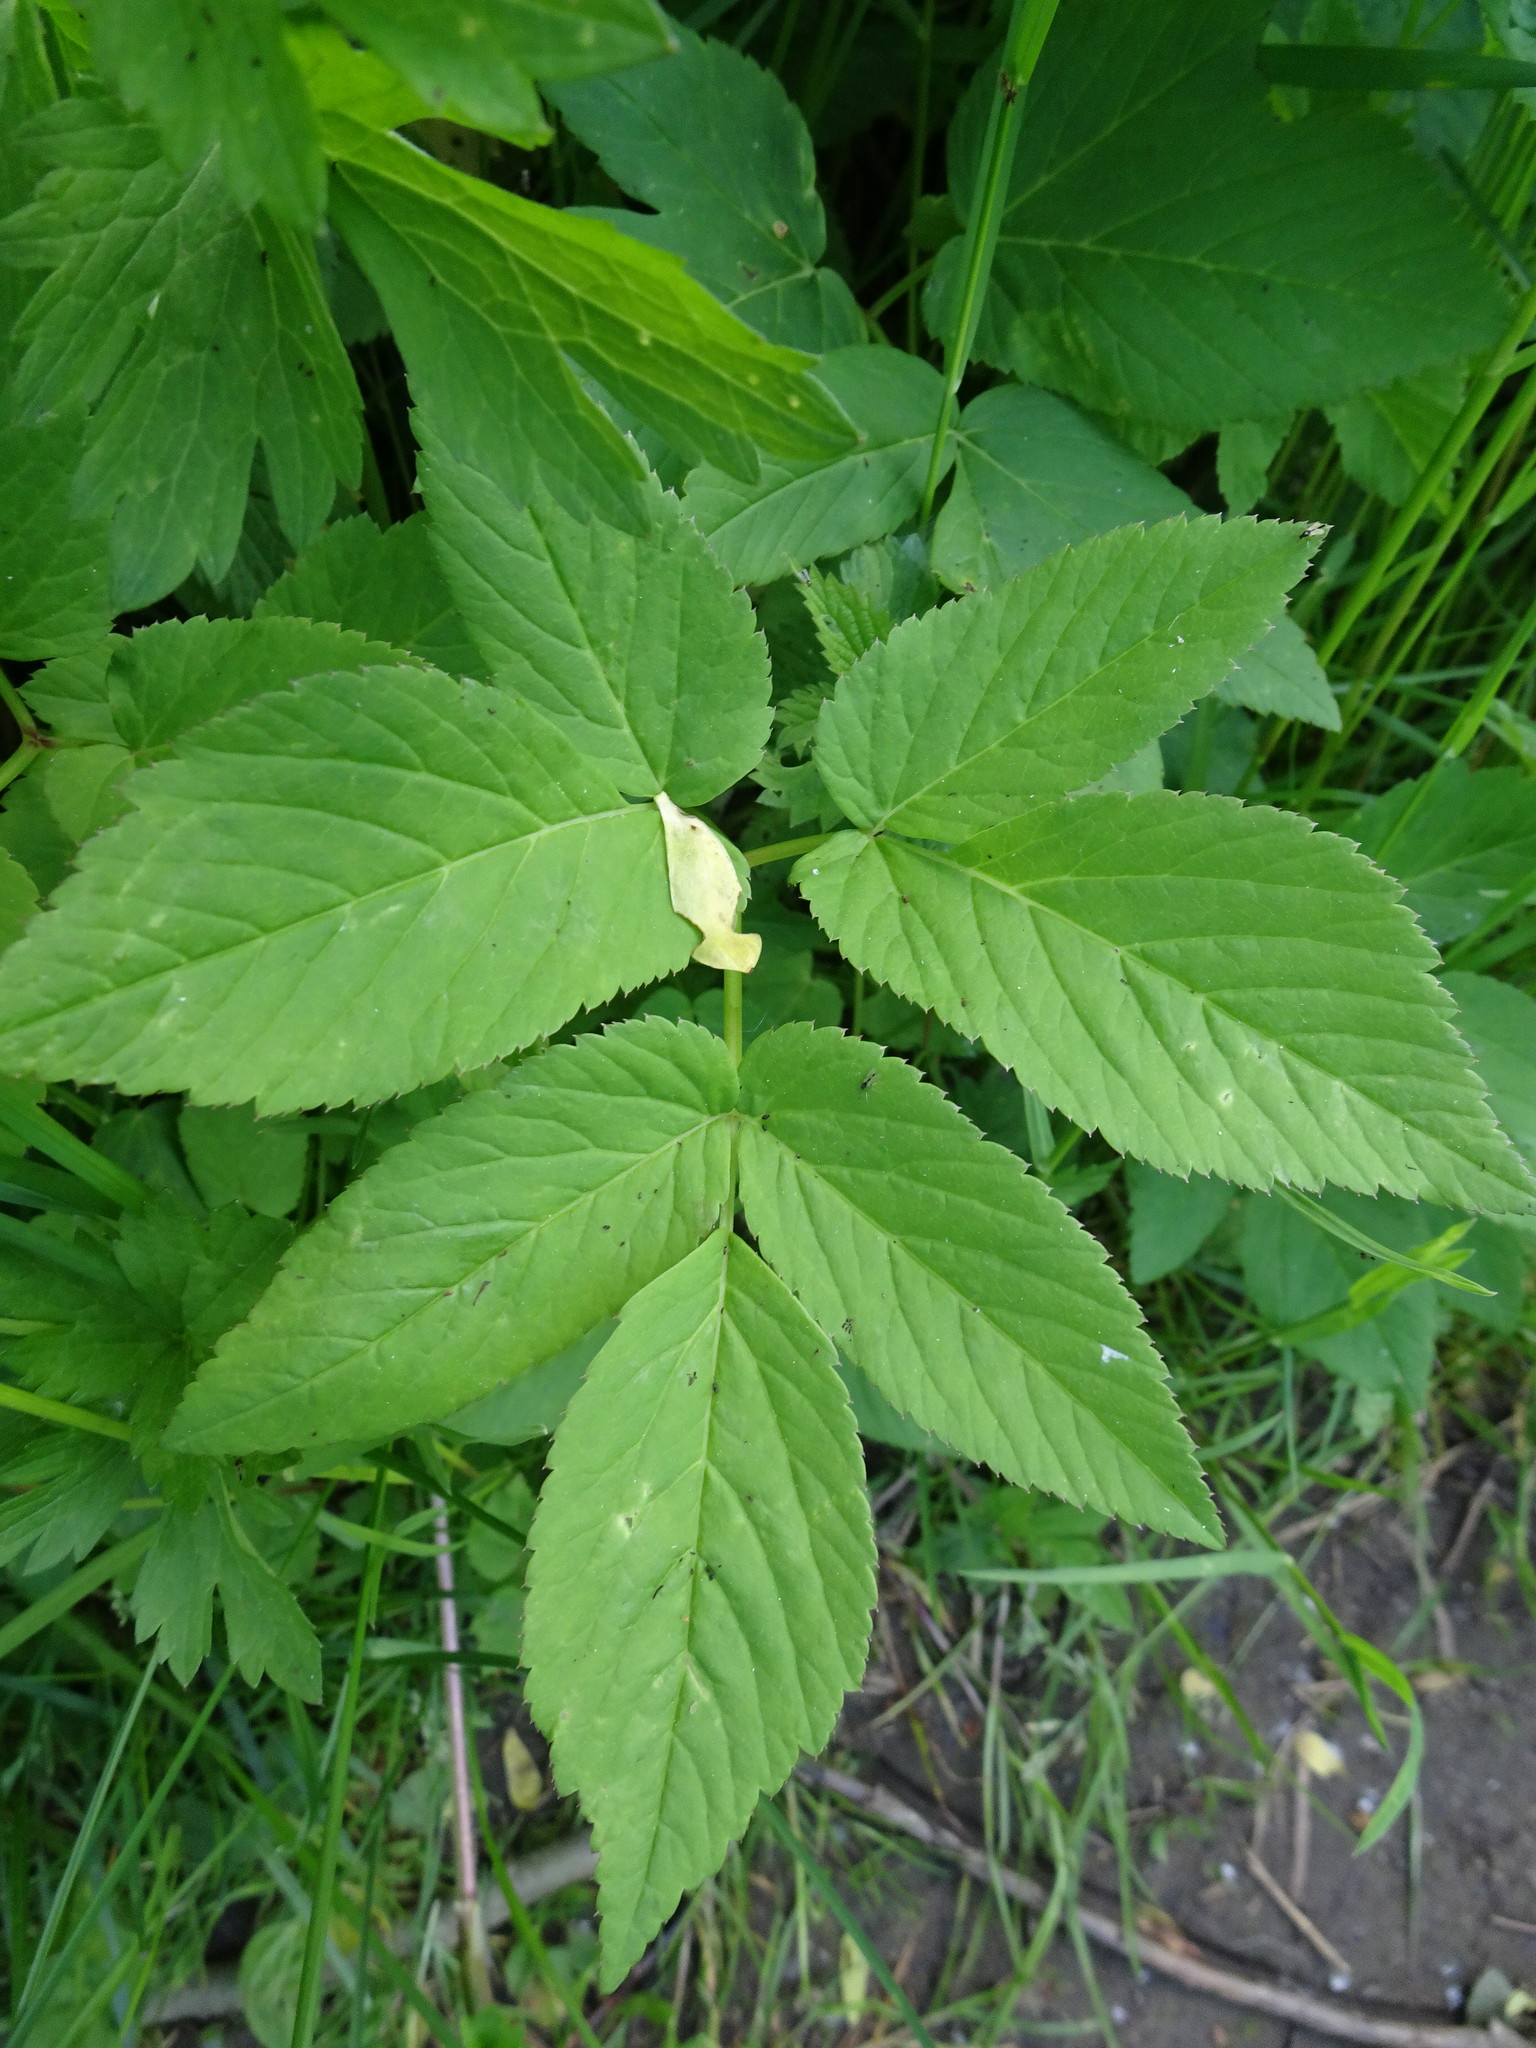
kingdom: Plantae
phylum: Tracheophyta
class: Magnoliopsida
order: Apiales
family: Apiaceae
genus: Aegopodium
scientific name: Aegopodium podagraria
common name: Ground-elder
